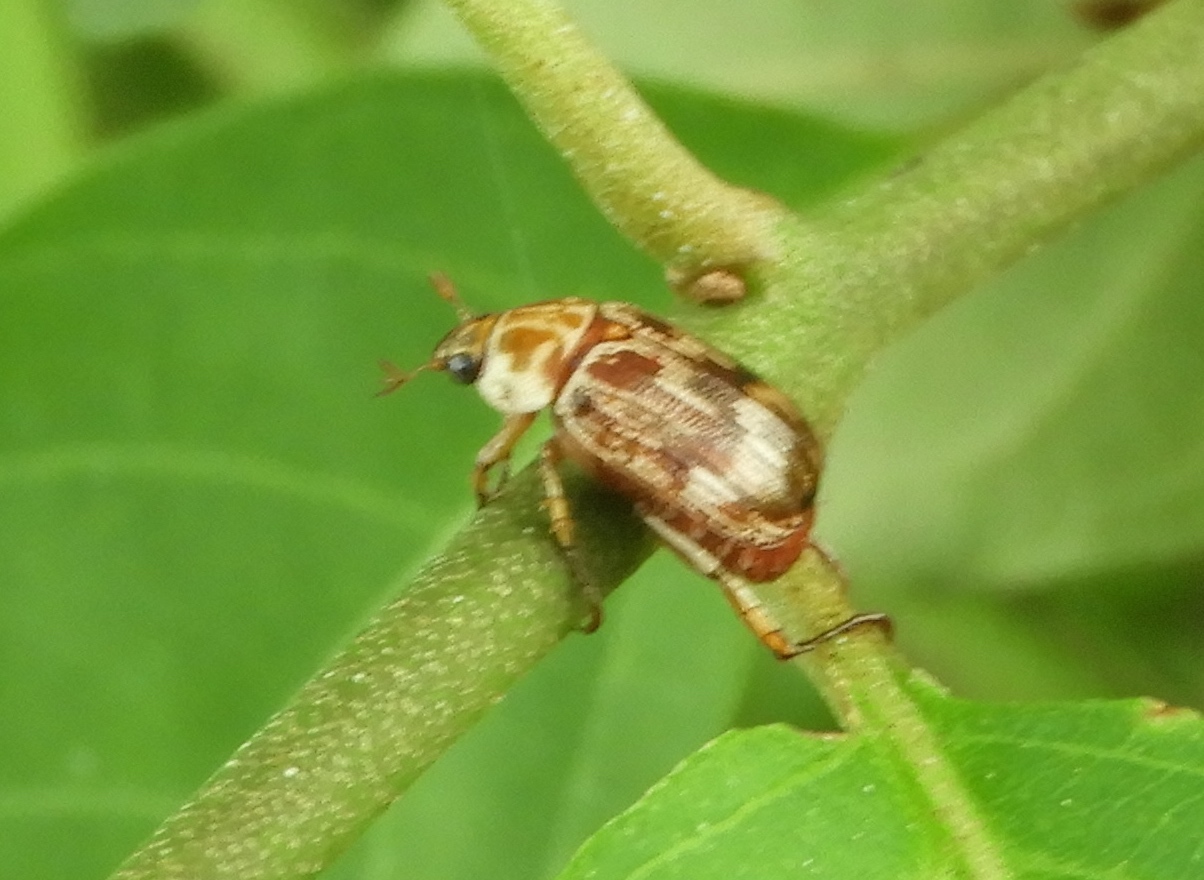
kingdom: Animalia
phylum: Arthropoda
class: Insecta
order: Coleoptera
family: Scarabaeidae
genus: Paranomala
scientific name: Paranomala histrionella
